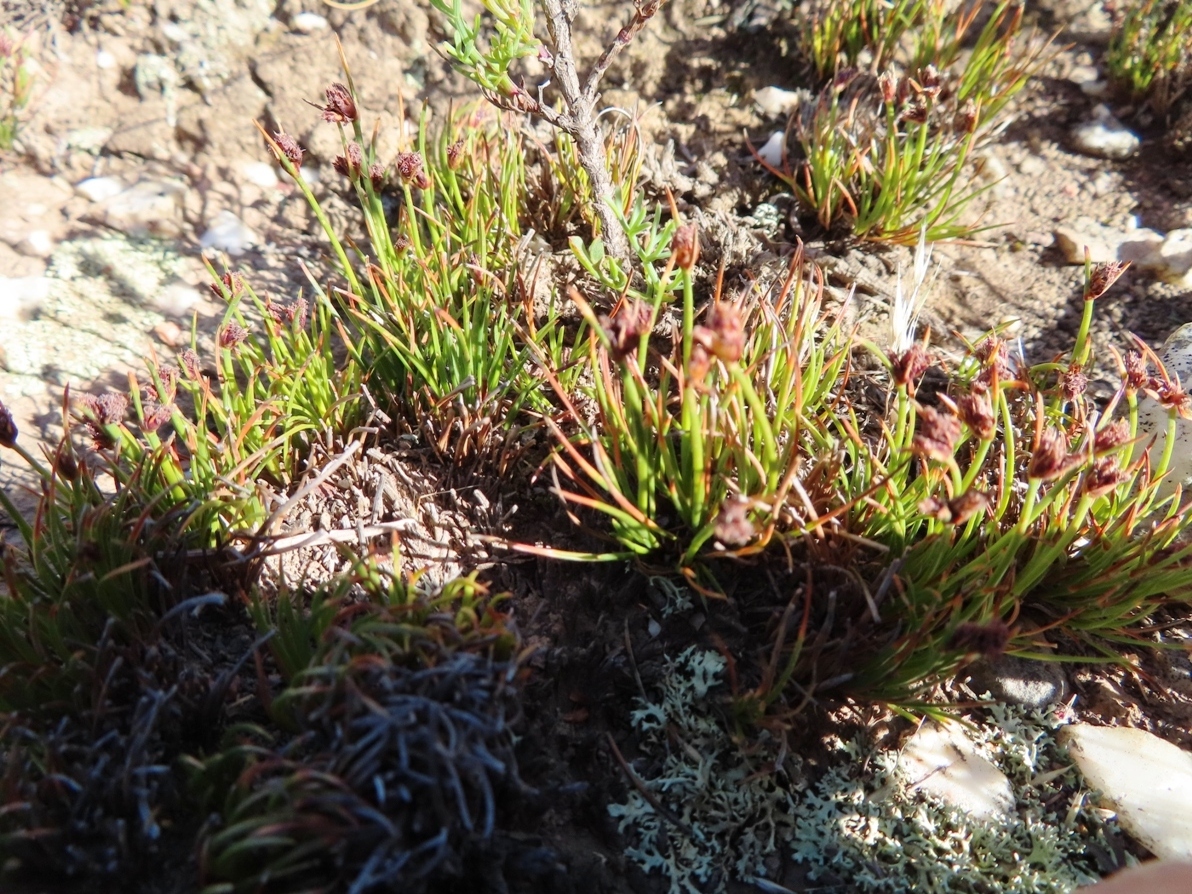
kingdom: Plantae
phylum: Tracheophyta
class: Liliopsida
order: Poales
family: Cyperaceae
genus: Ficinia
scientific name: Ficinia overbergensis
